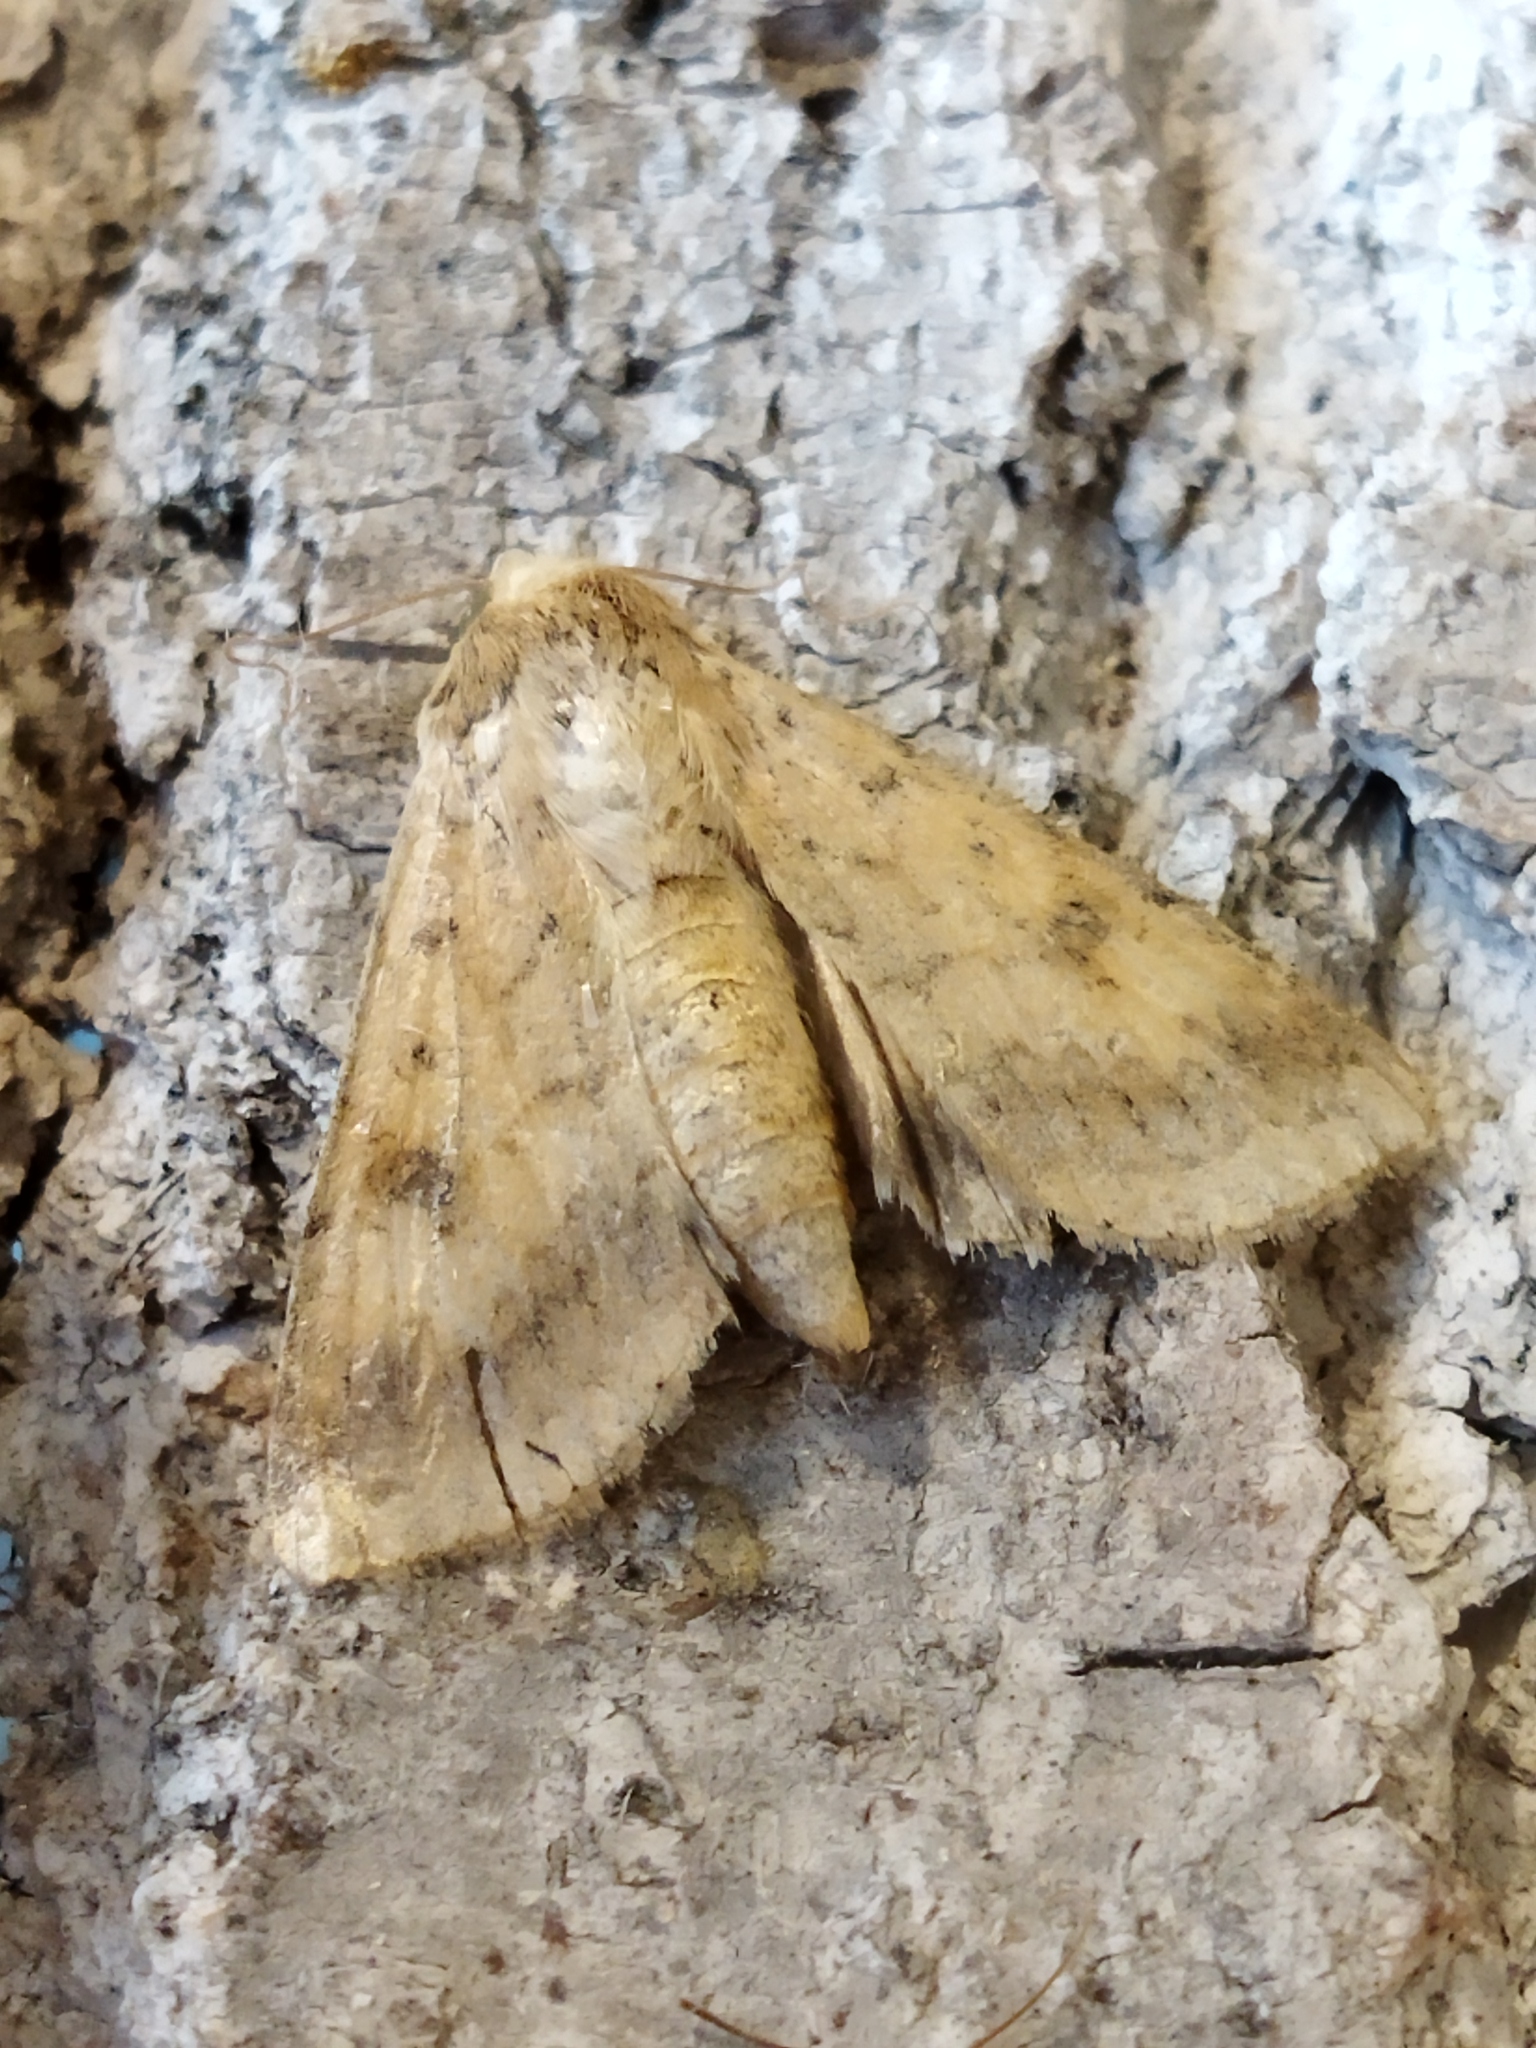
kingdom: Animalia
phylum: Arthropoda
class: Insecta
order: Lepidoptera
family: Noctuidae
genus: Helicoverpa
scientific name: Helicoverpa armigera
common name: Cotton bollworm
